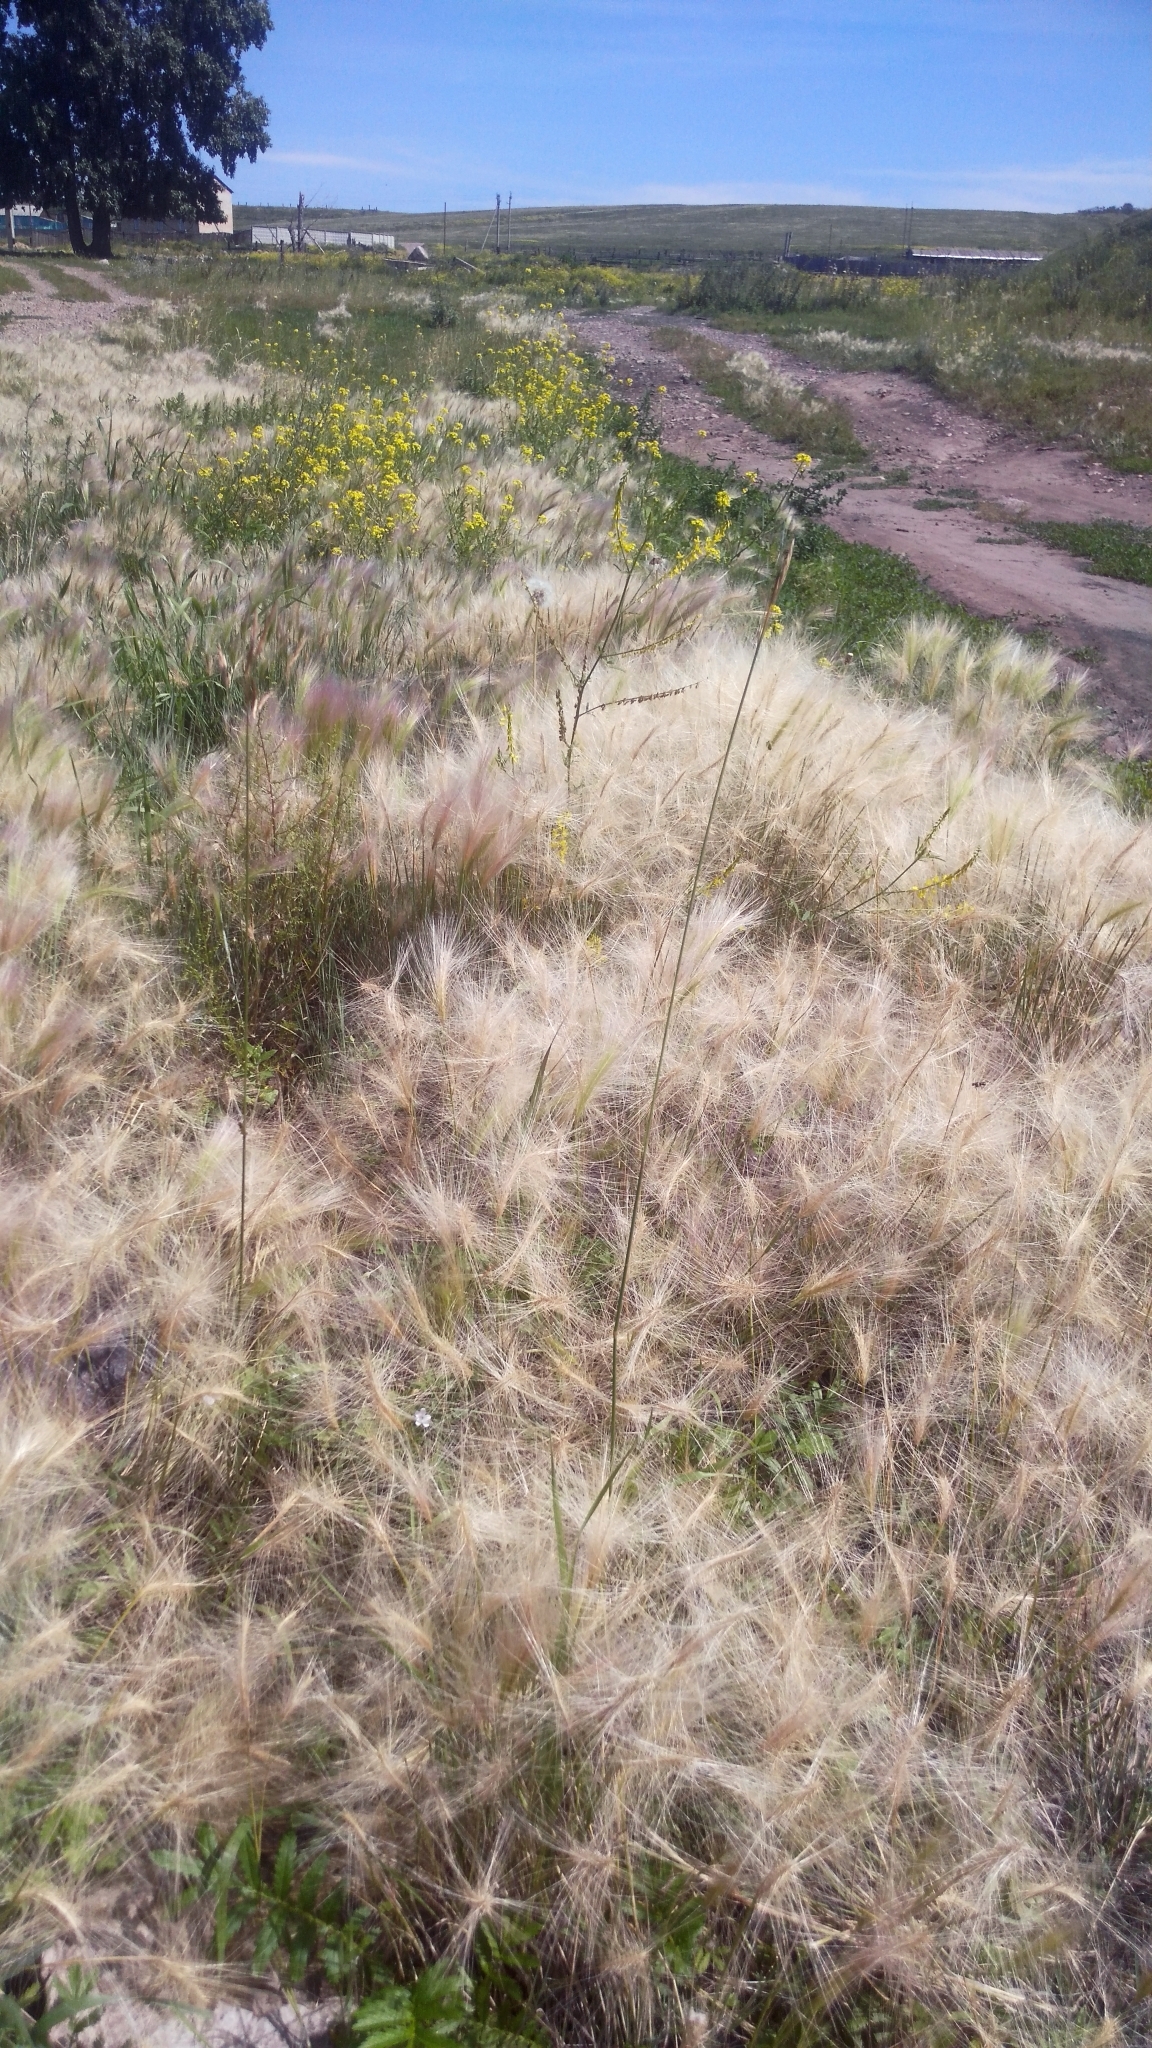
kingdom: Plantae
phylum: Tracheophyta
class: Liliopsida
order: Poales
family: Poaceae
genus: Hordeum
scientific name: Hordeum jubatum
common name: Foxtail barley
